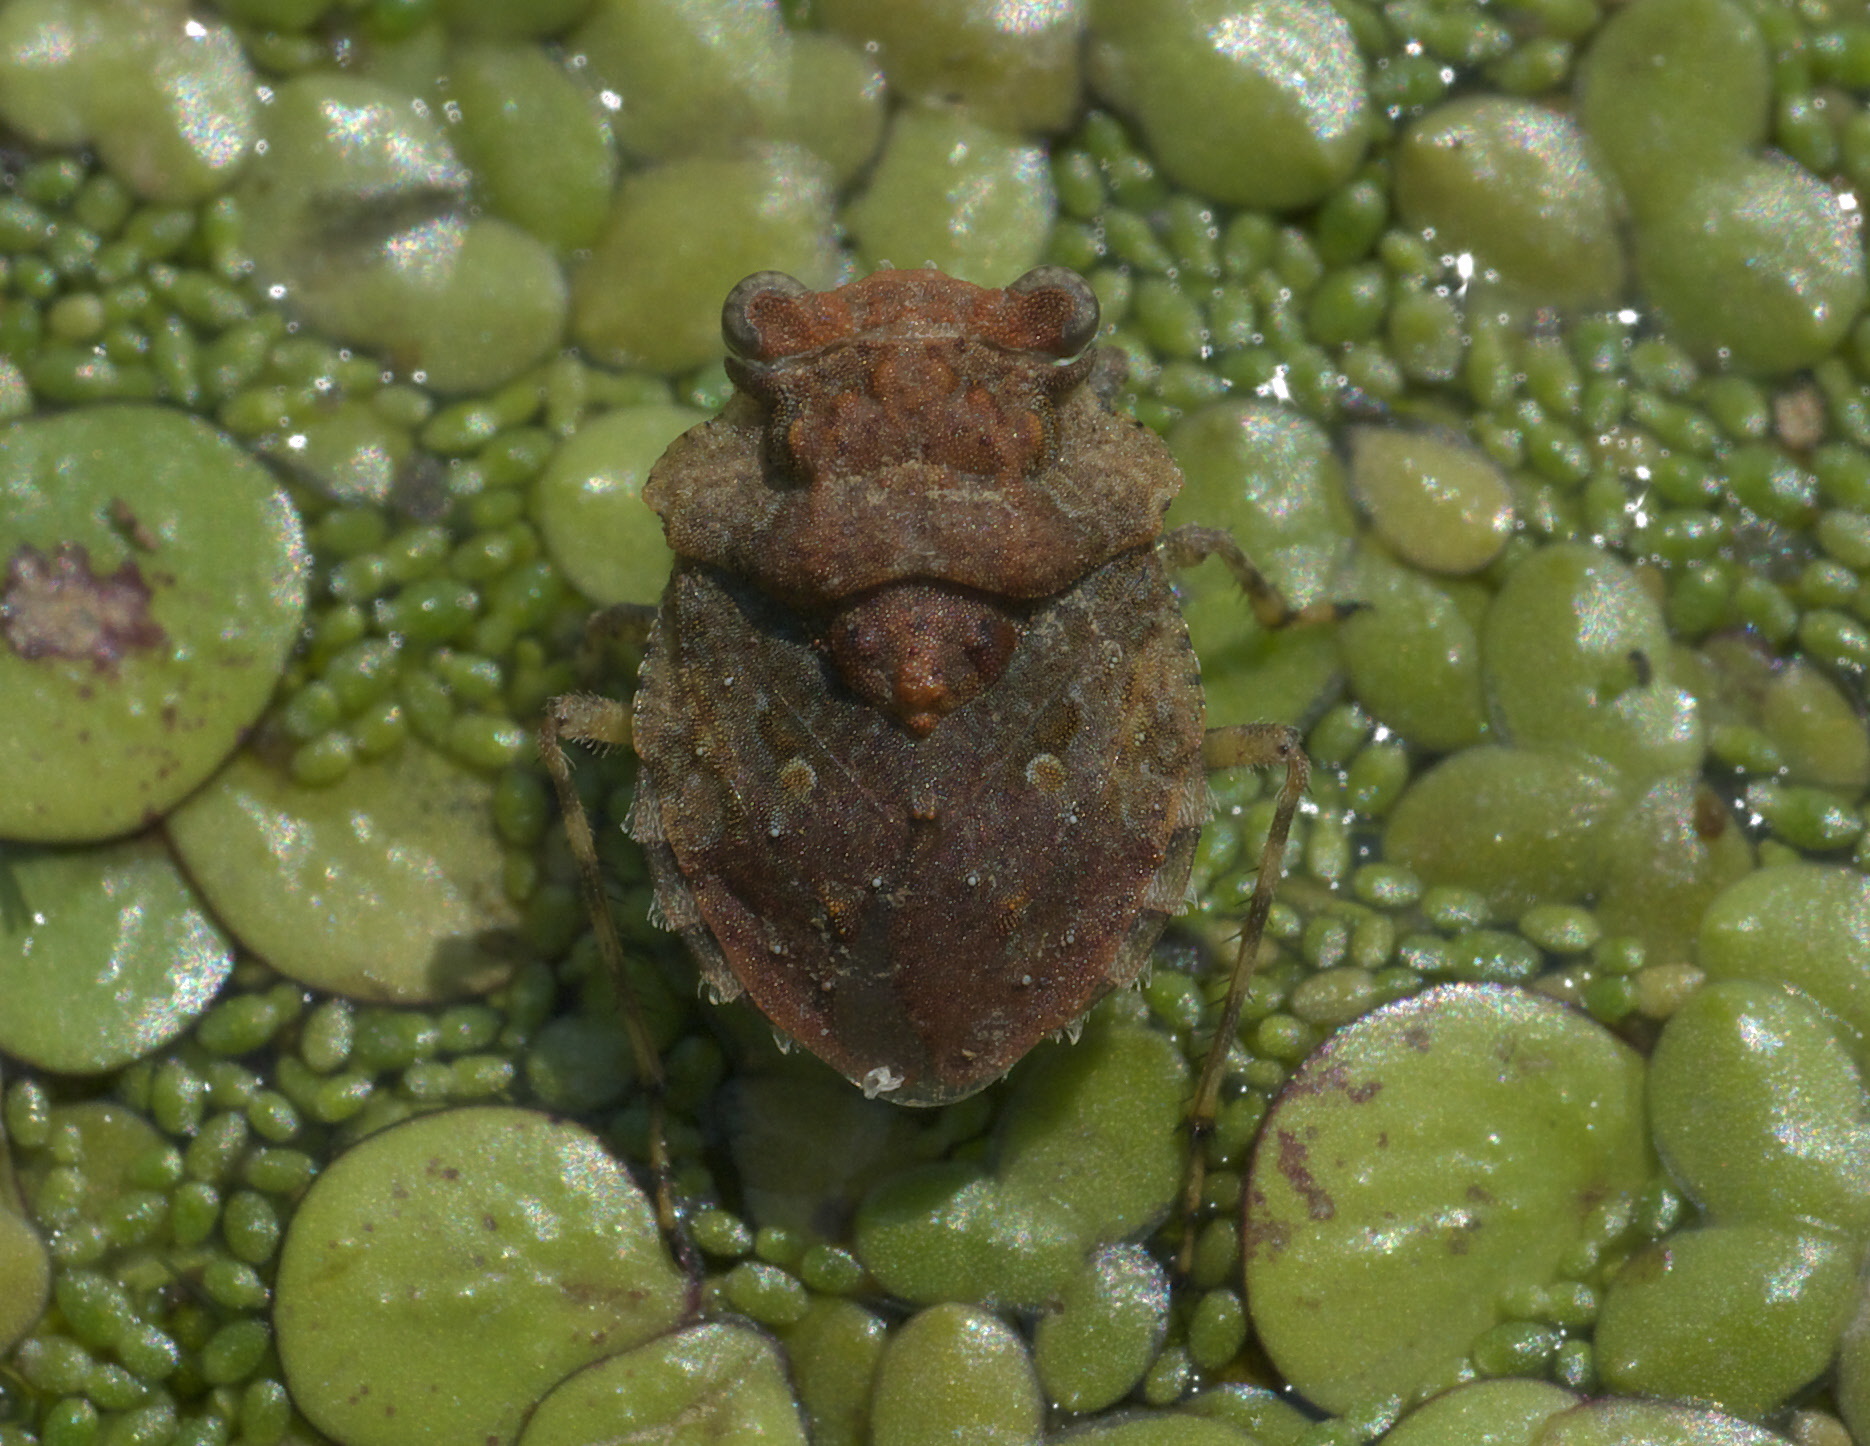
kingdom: Animalia
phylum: Arthropoda
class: Insecta
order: Hemiptera
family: Gelastocoridae
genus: Gelastocoris
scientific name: Gelastocoris oculatus
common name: Toad bug
